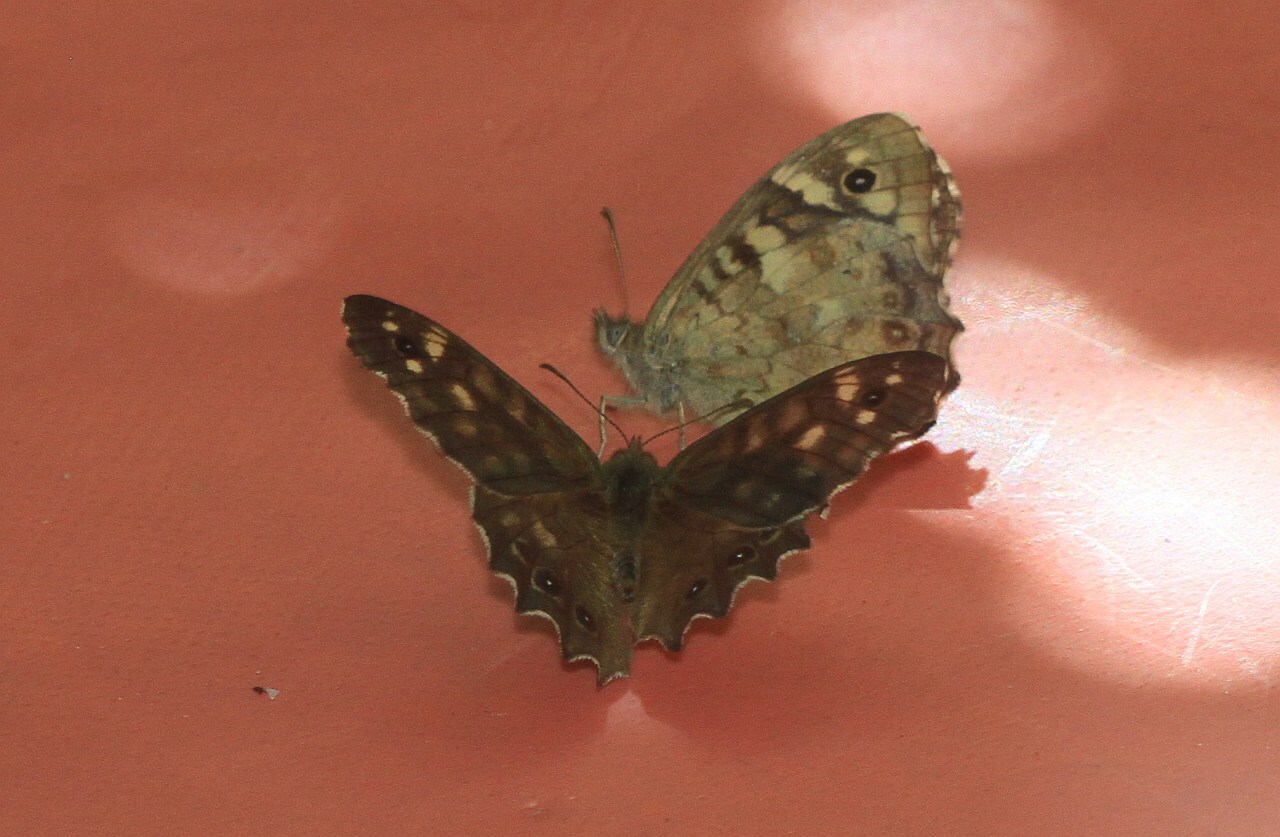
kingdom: Animalia
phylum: Arthropoda
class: Insecta
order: Lepidoptera
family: Nymphalidae
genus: Pararge
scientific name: Pararge aegeria
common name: Speckled wood
